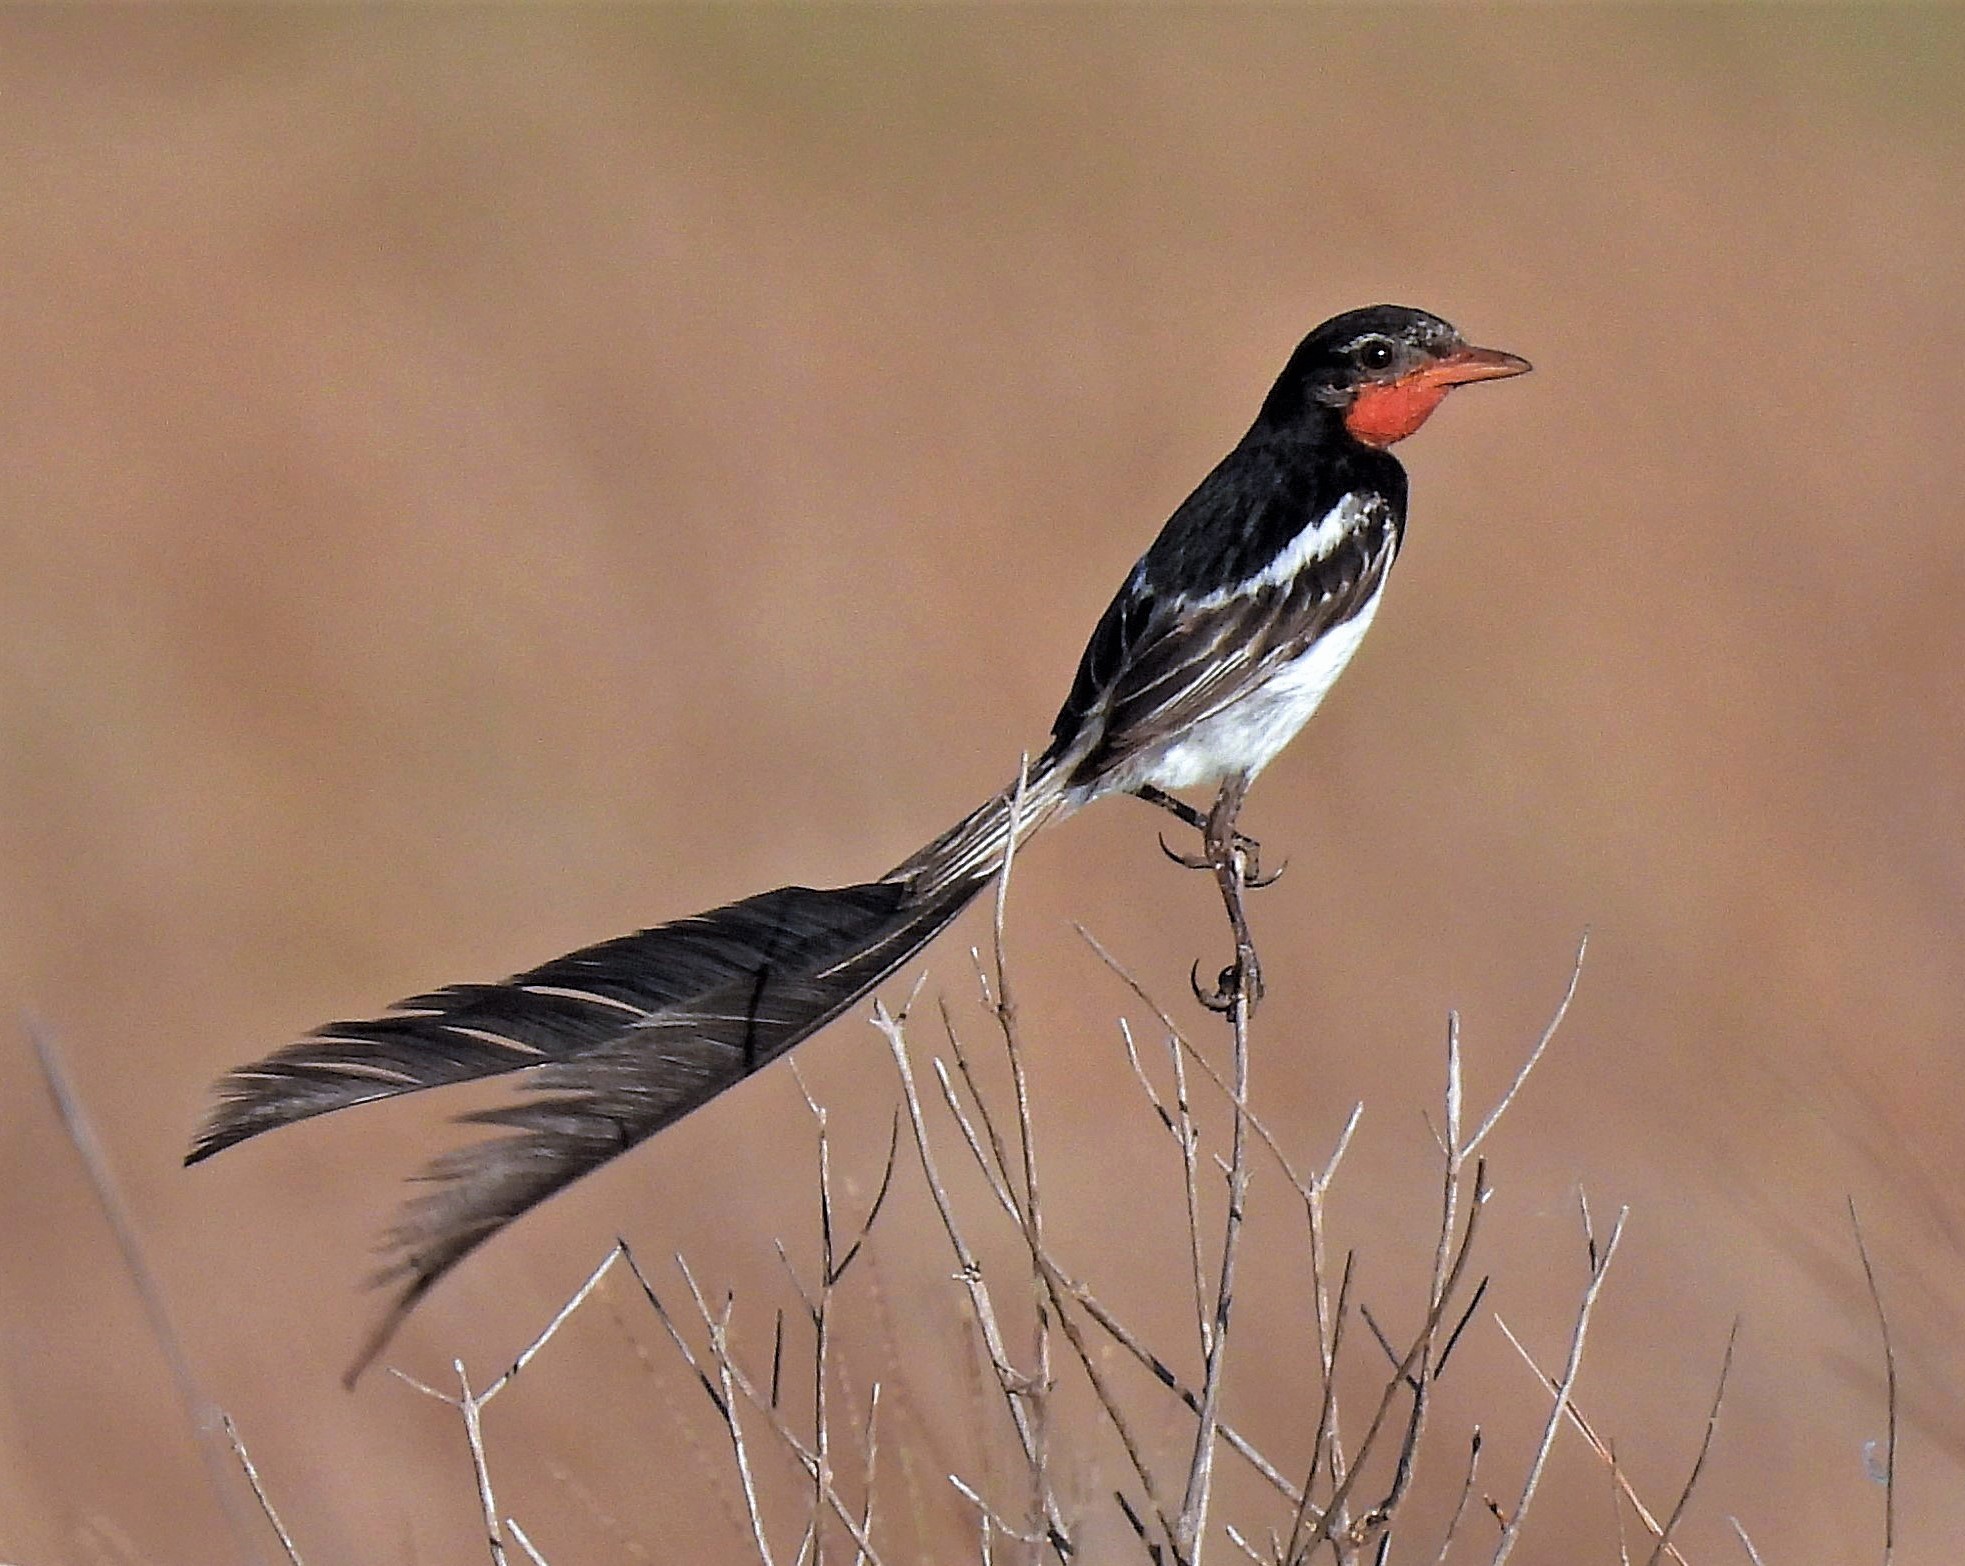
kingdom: Animalia
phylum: Chordata
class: Aves
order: Passeriformes
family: Tyrannidae
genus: Alectrurus
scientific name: Alectrurus risora
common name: Strange-tailed tyrant
